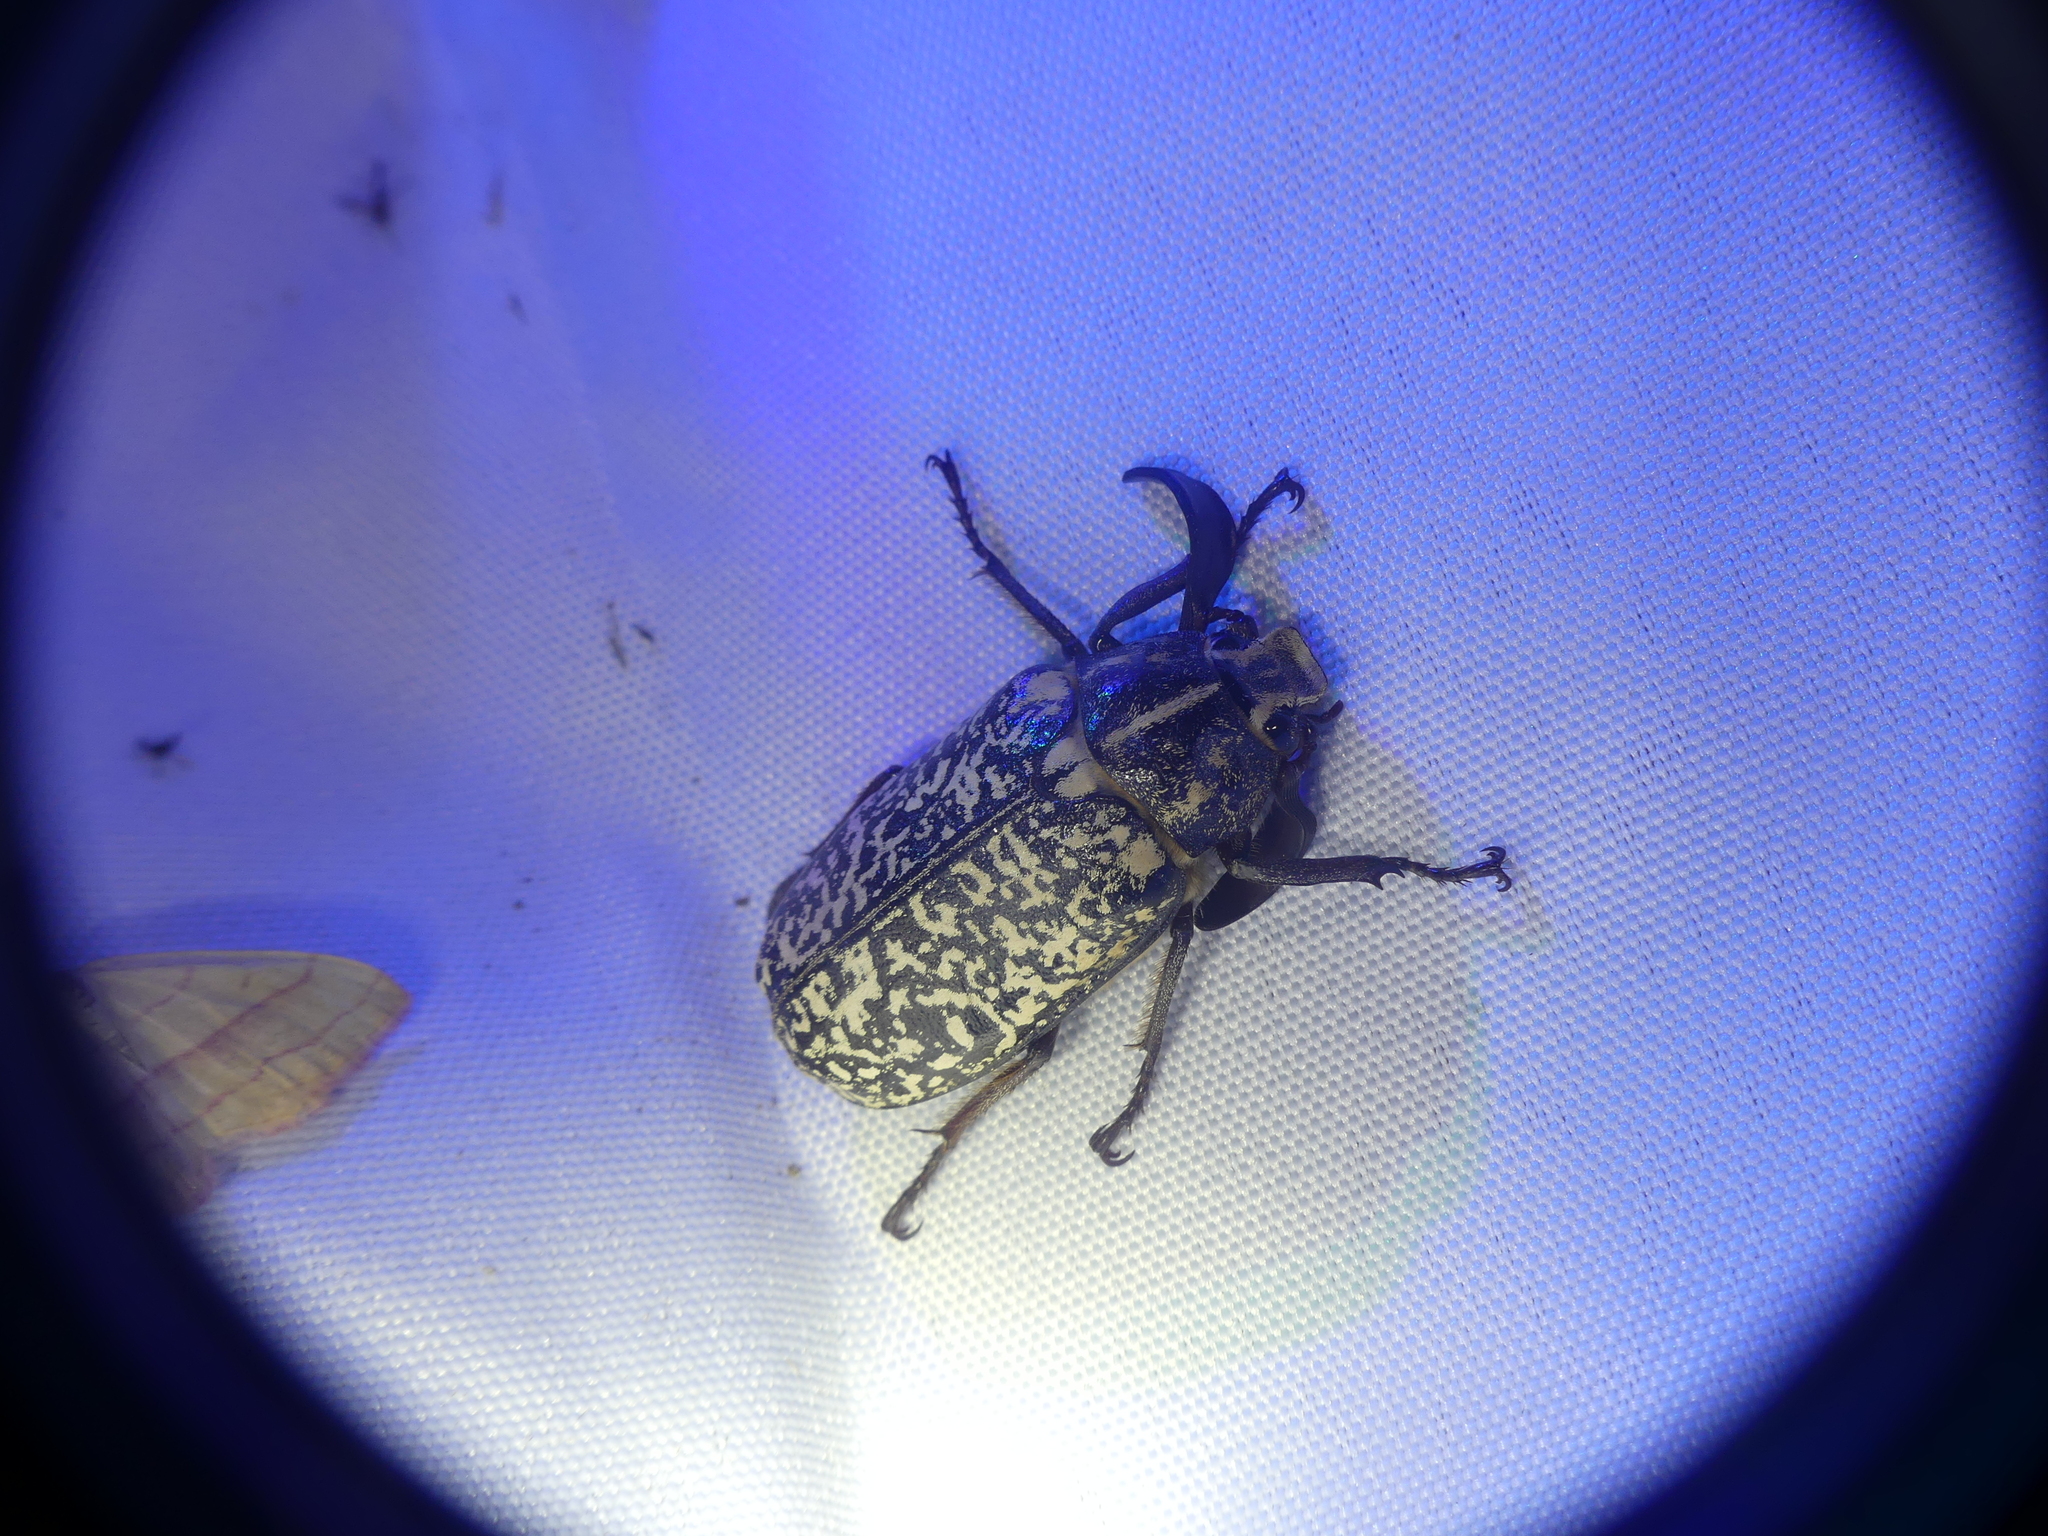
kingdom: Animalia
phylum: Arthropoda
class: Insecta
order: Coleoptera
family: Scarabaeidae
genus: Polyphylla
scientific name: Polyphylla fullo
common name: Pine chafer
